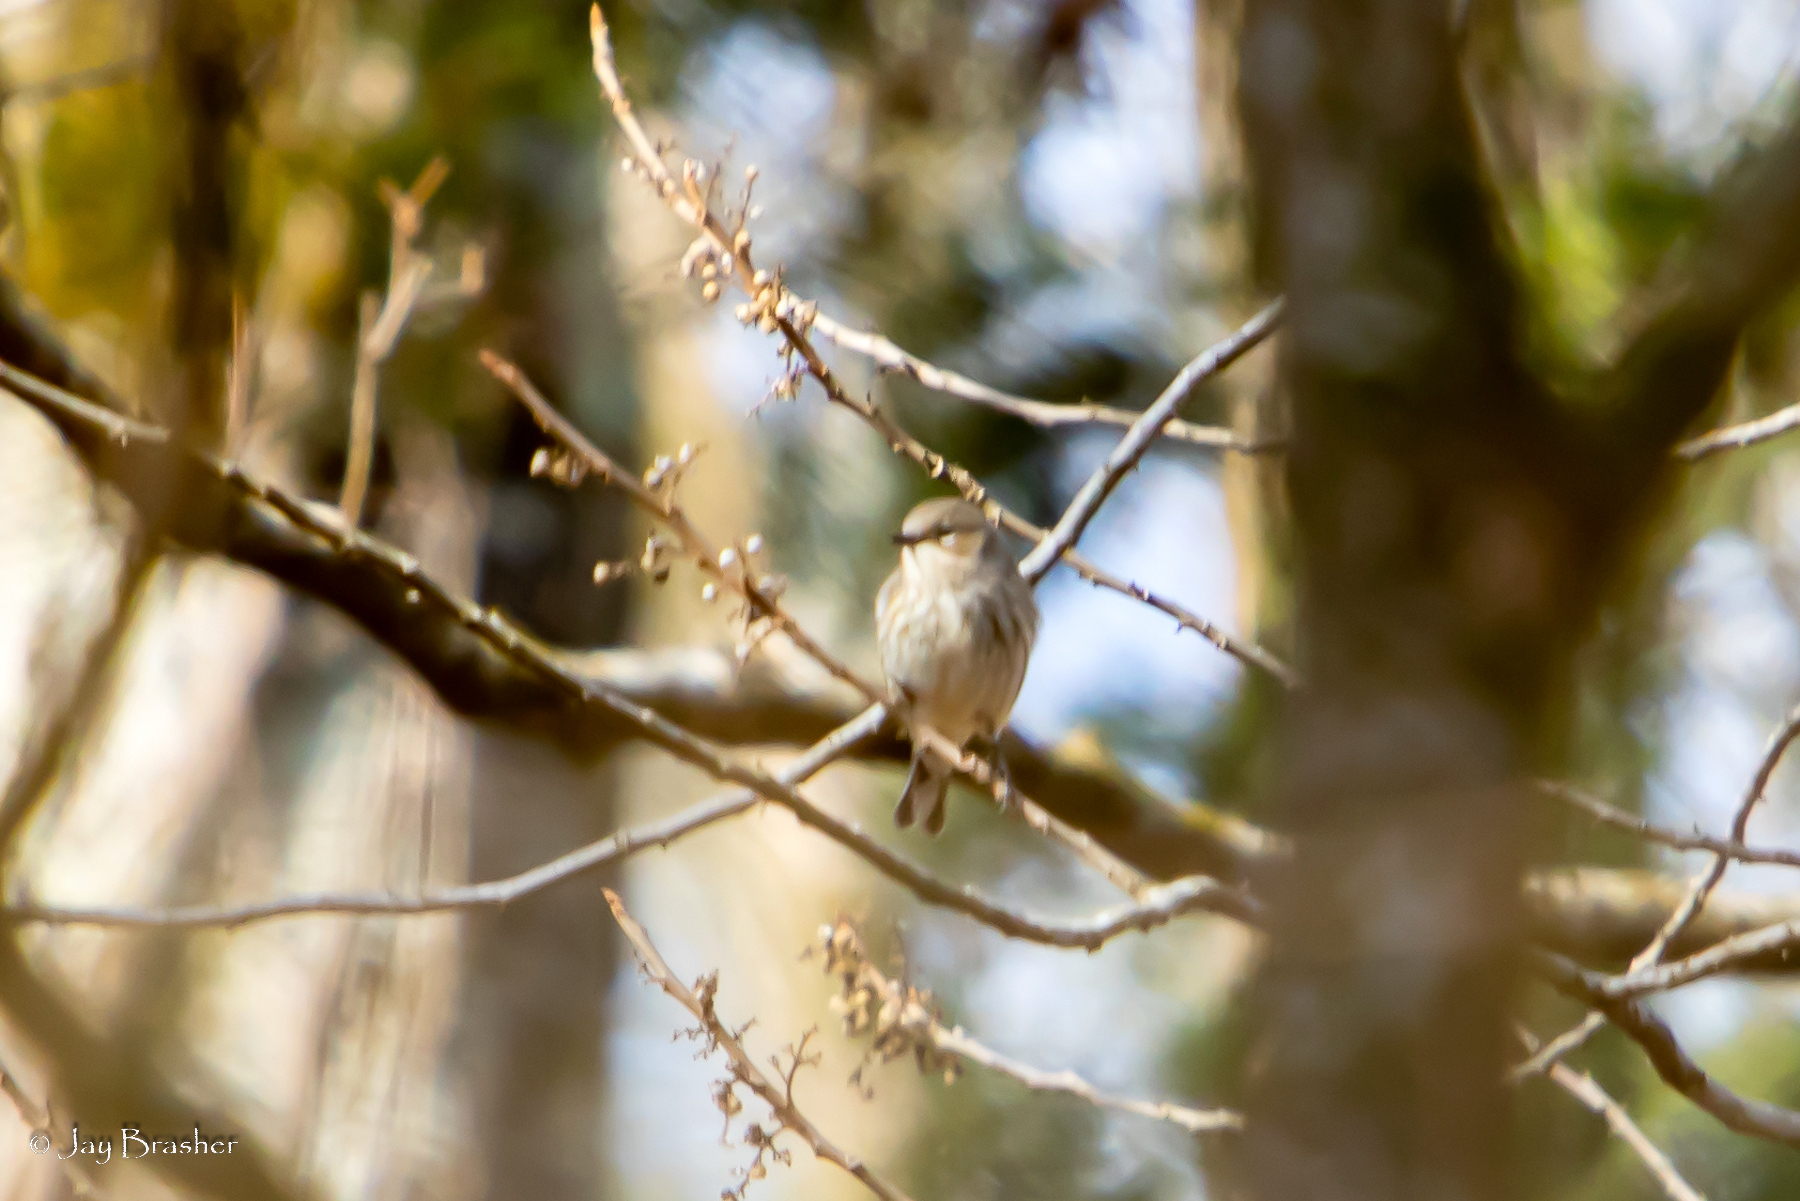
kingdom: Animalia
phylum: Chordata
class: Aves
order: Passeriformes
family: Parulidae
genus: Setophaga
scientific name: Setophaga coronata
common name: Myrtle warbler
